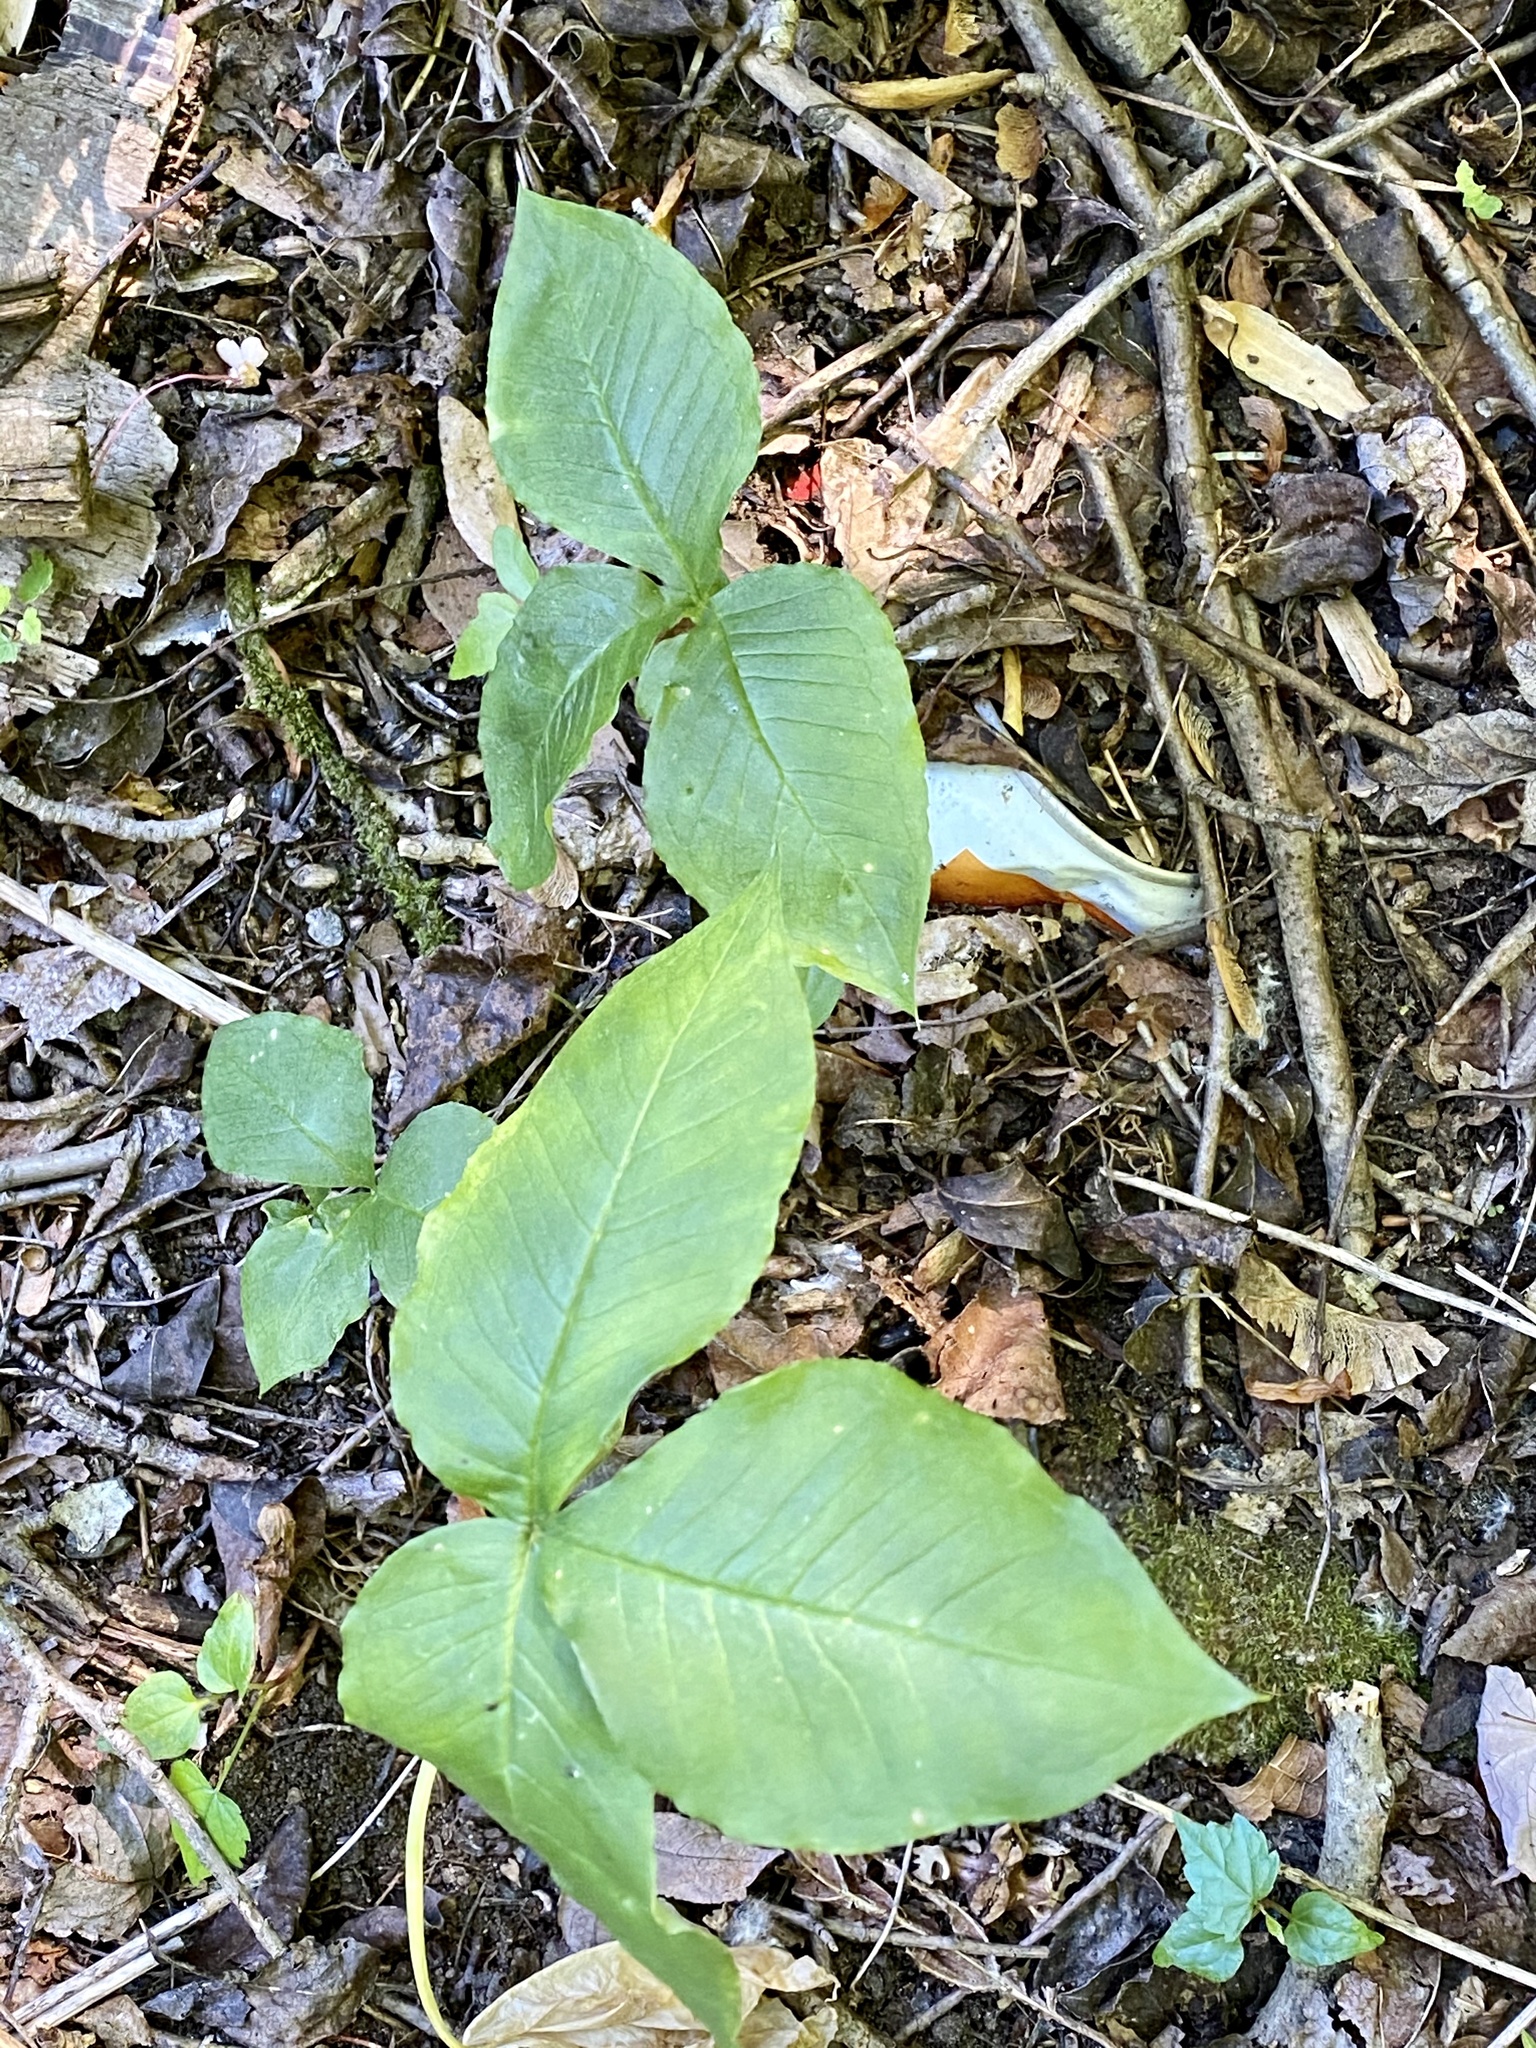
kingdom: Plantae
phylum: Tracheophyta
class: Liliopsida
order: Alismatales
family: Araceae
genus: Arisaema
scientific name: Arisaema triphyllum
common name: Jack-in-the-pulpit
